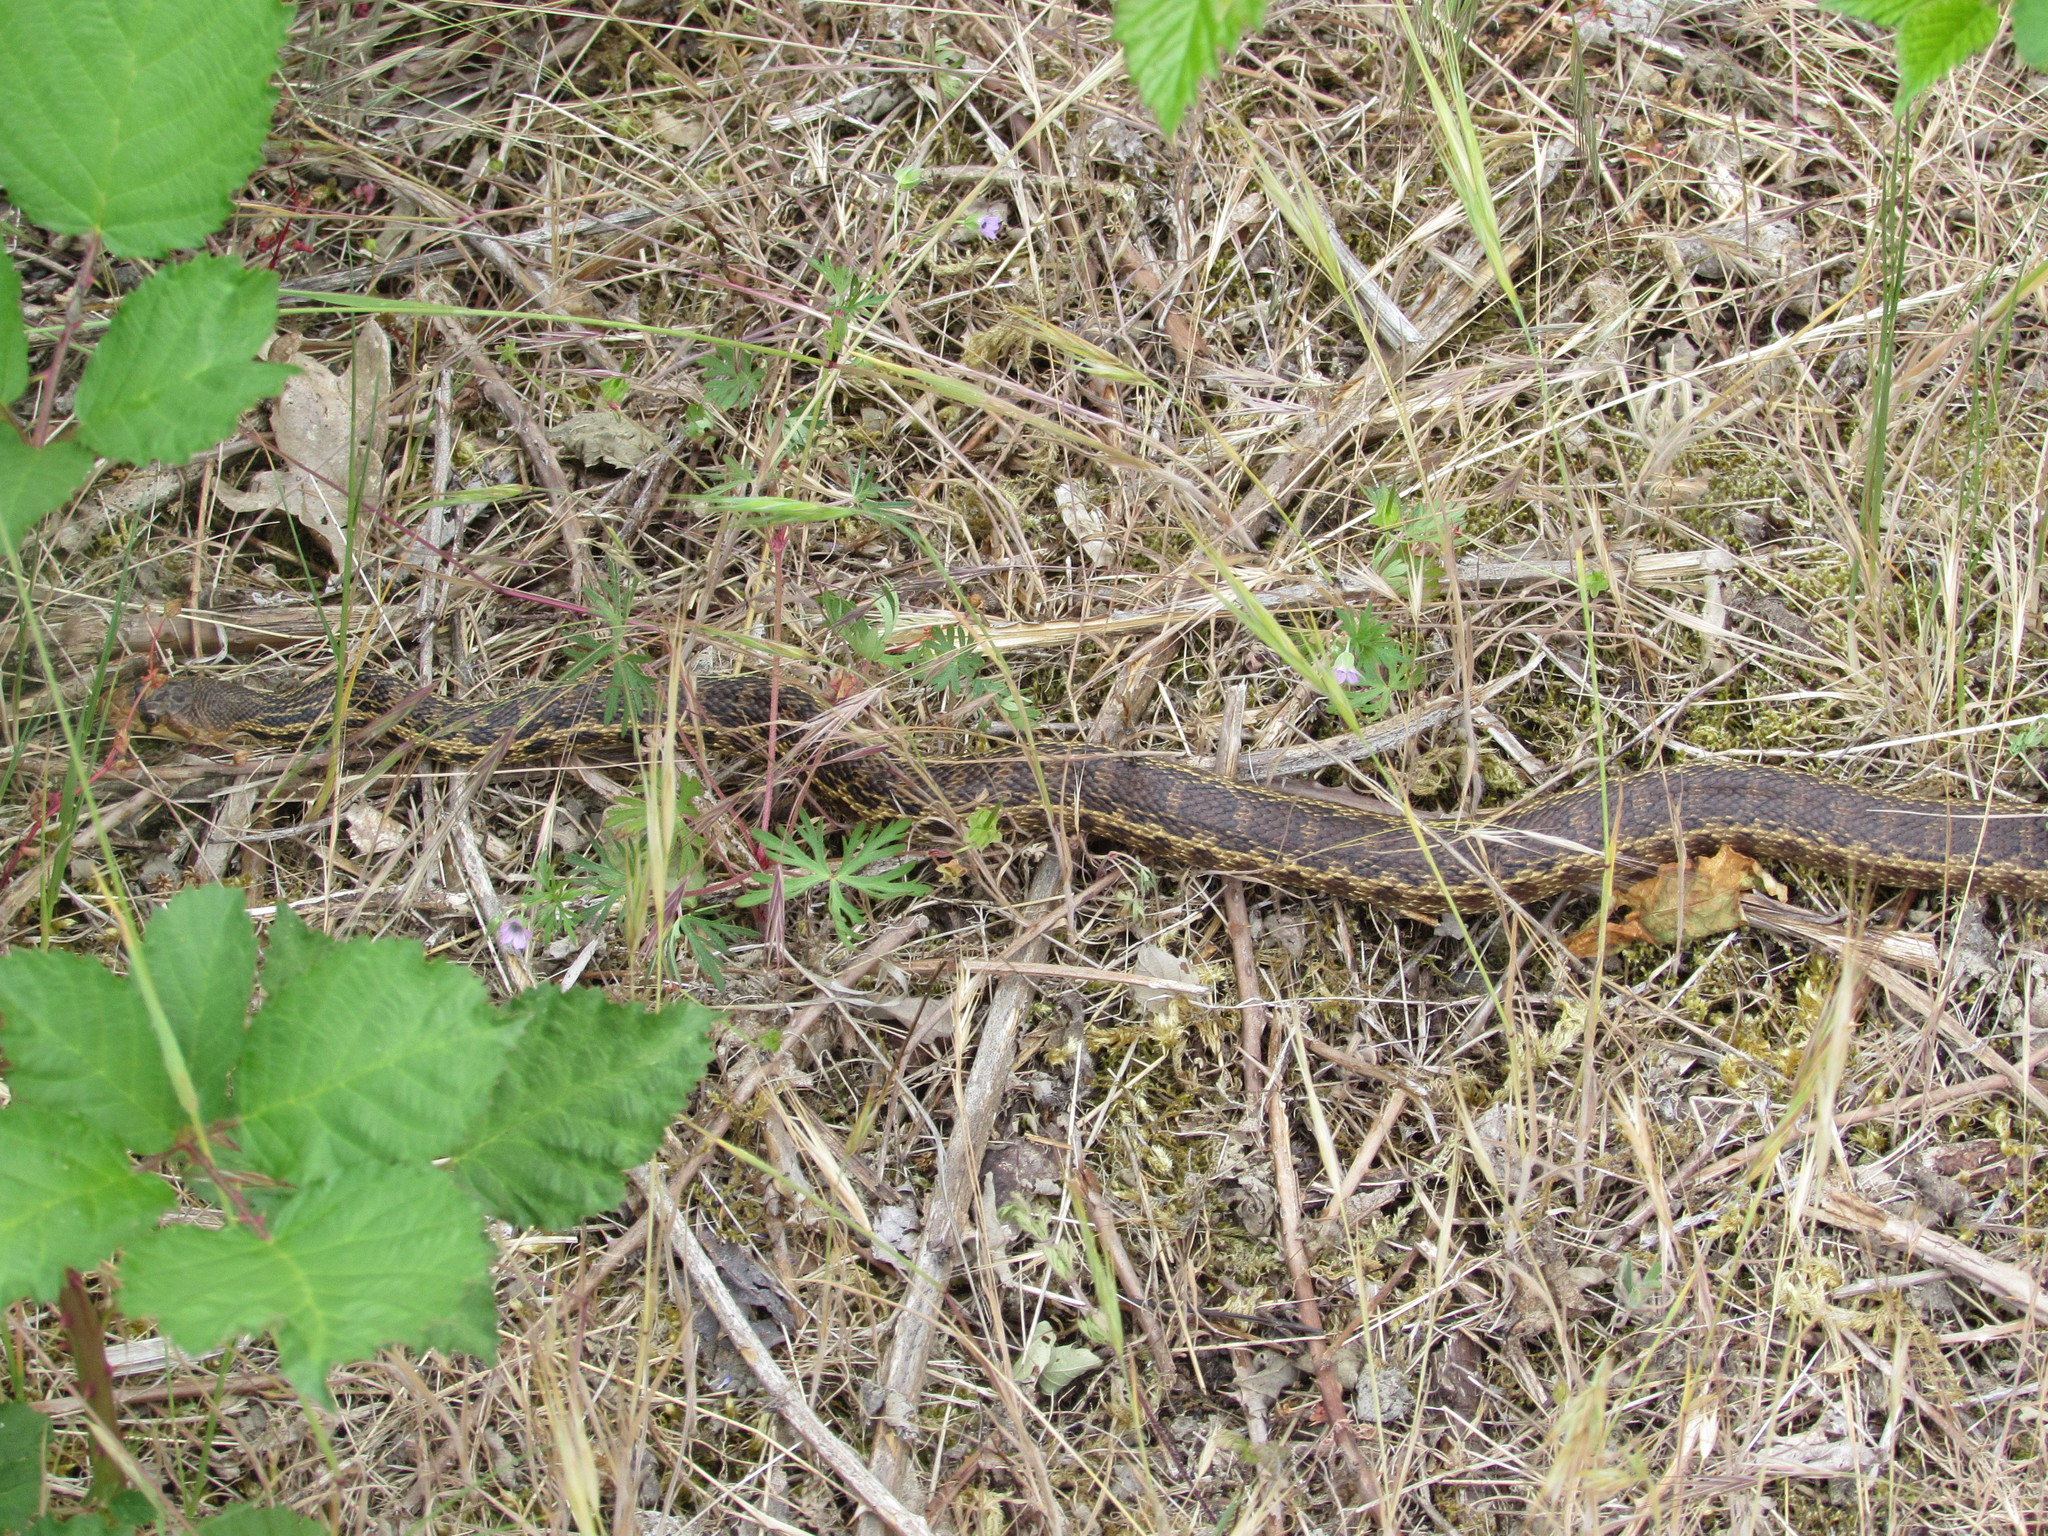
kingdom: Animalia
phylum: Chordata
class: Squamata
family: Colubridae
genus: Pituophis
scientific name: Pituophis catenifer
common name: Gopher snake
